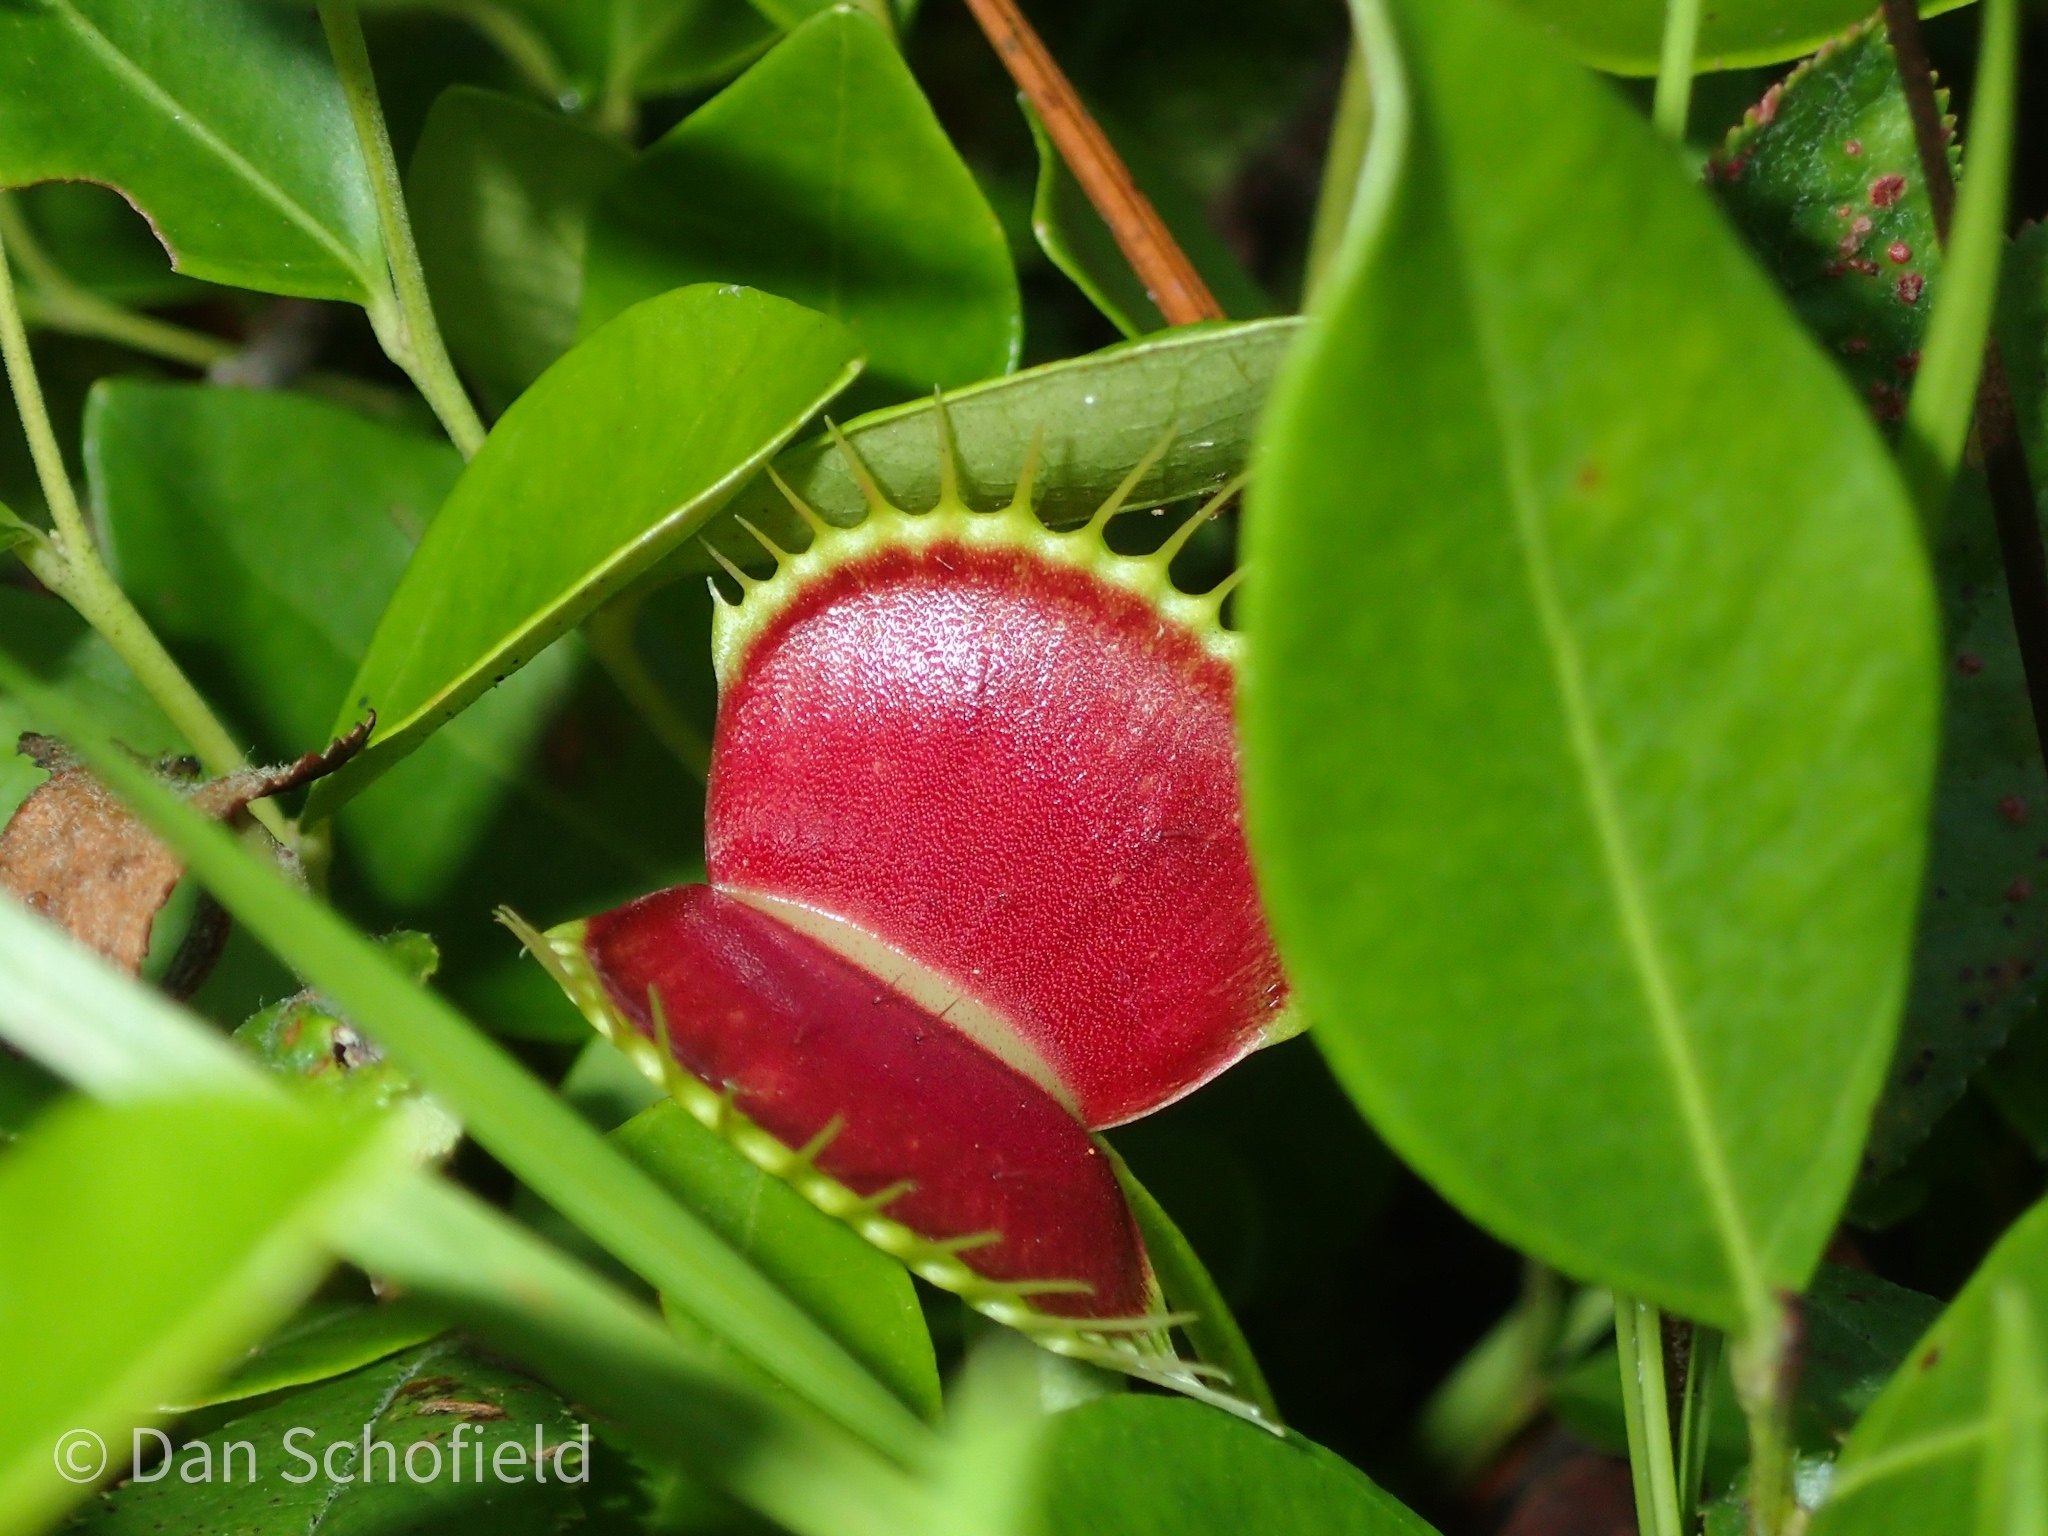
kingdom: Plantae
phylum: Tracheophyta
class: Magnoliopsida
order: Caryophyllales
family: Droseraceae
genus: Dionaea
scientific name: Dionaea muscipula
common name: Venus flytrap
